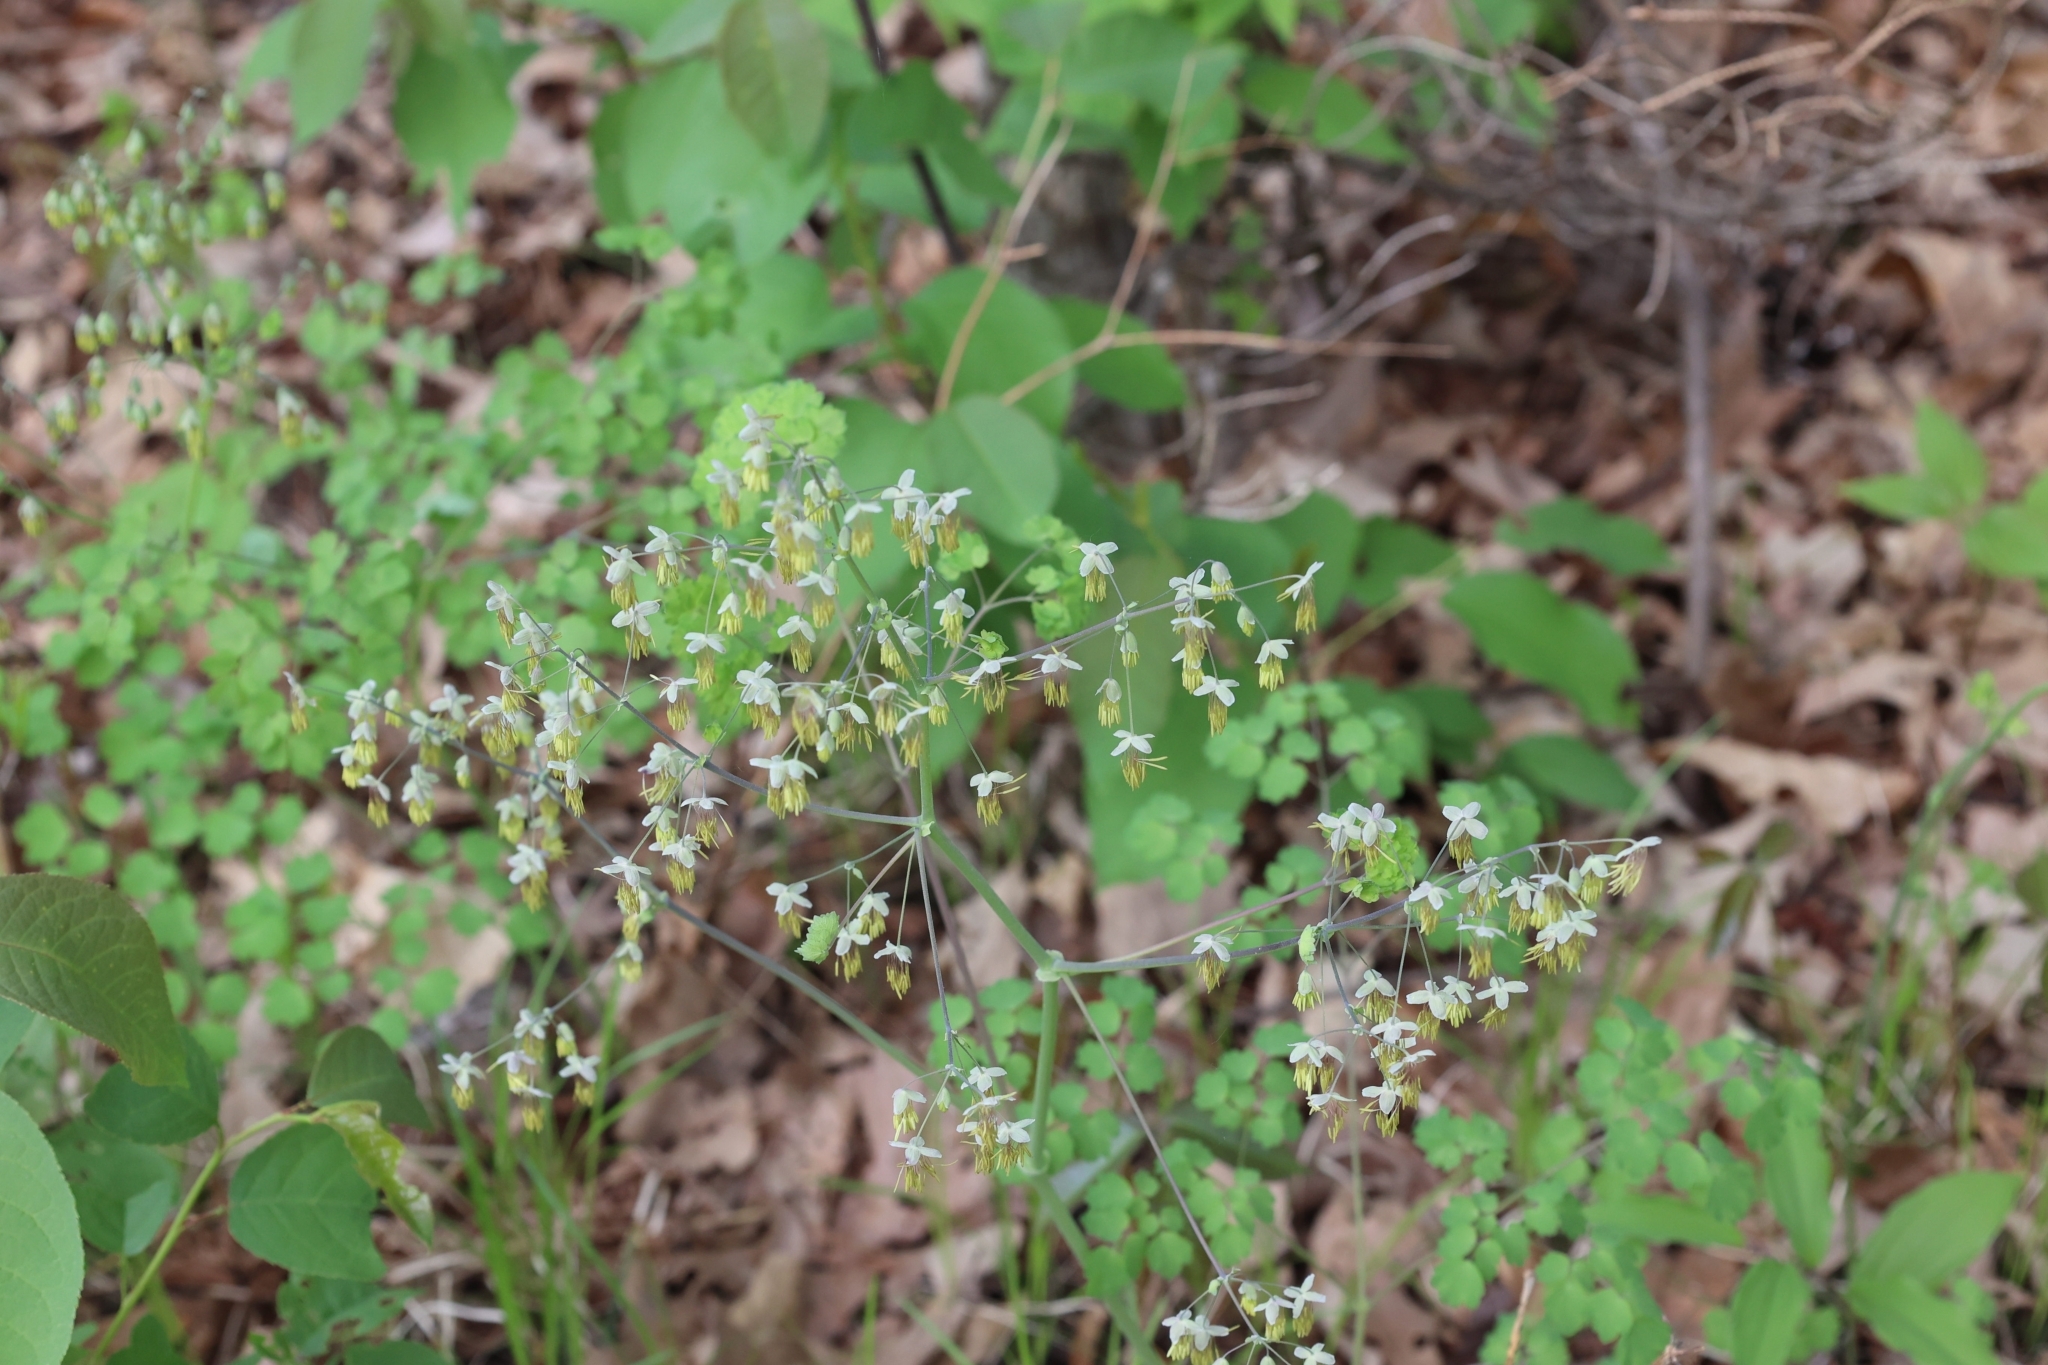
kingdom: Plantae
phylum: Tracheophyta
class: Magnoliopsida
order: Ranunculales
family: Ranunculaceae
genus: Thalictrum
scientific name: Thalictrum dioicum
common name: Early meadow-rue
